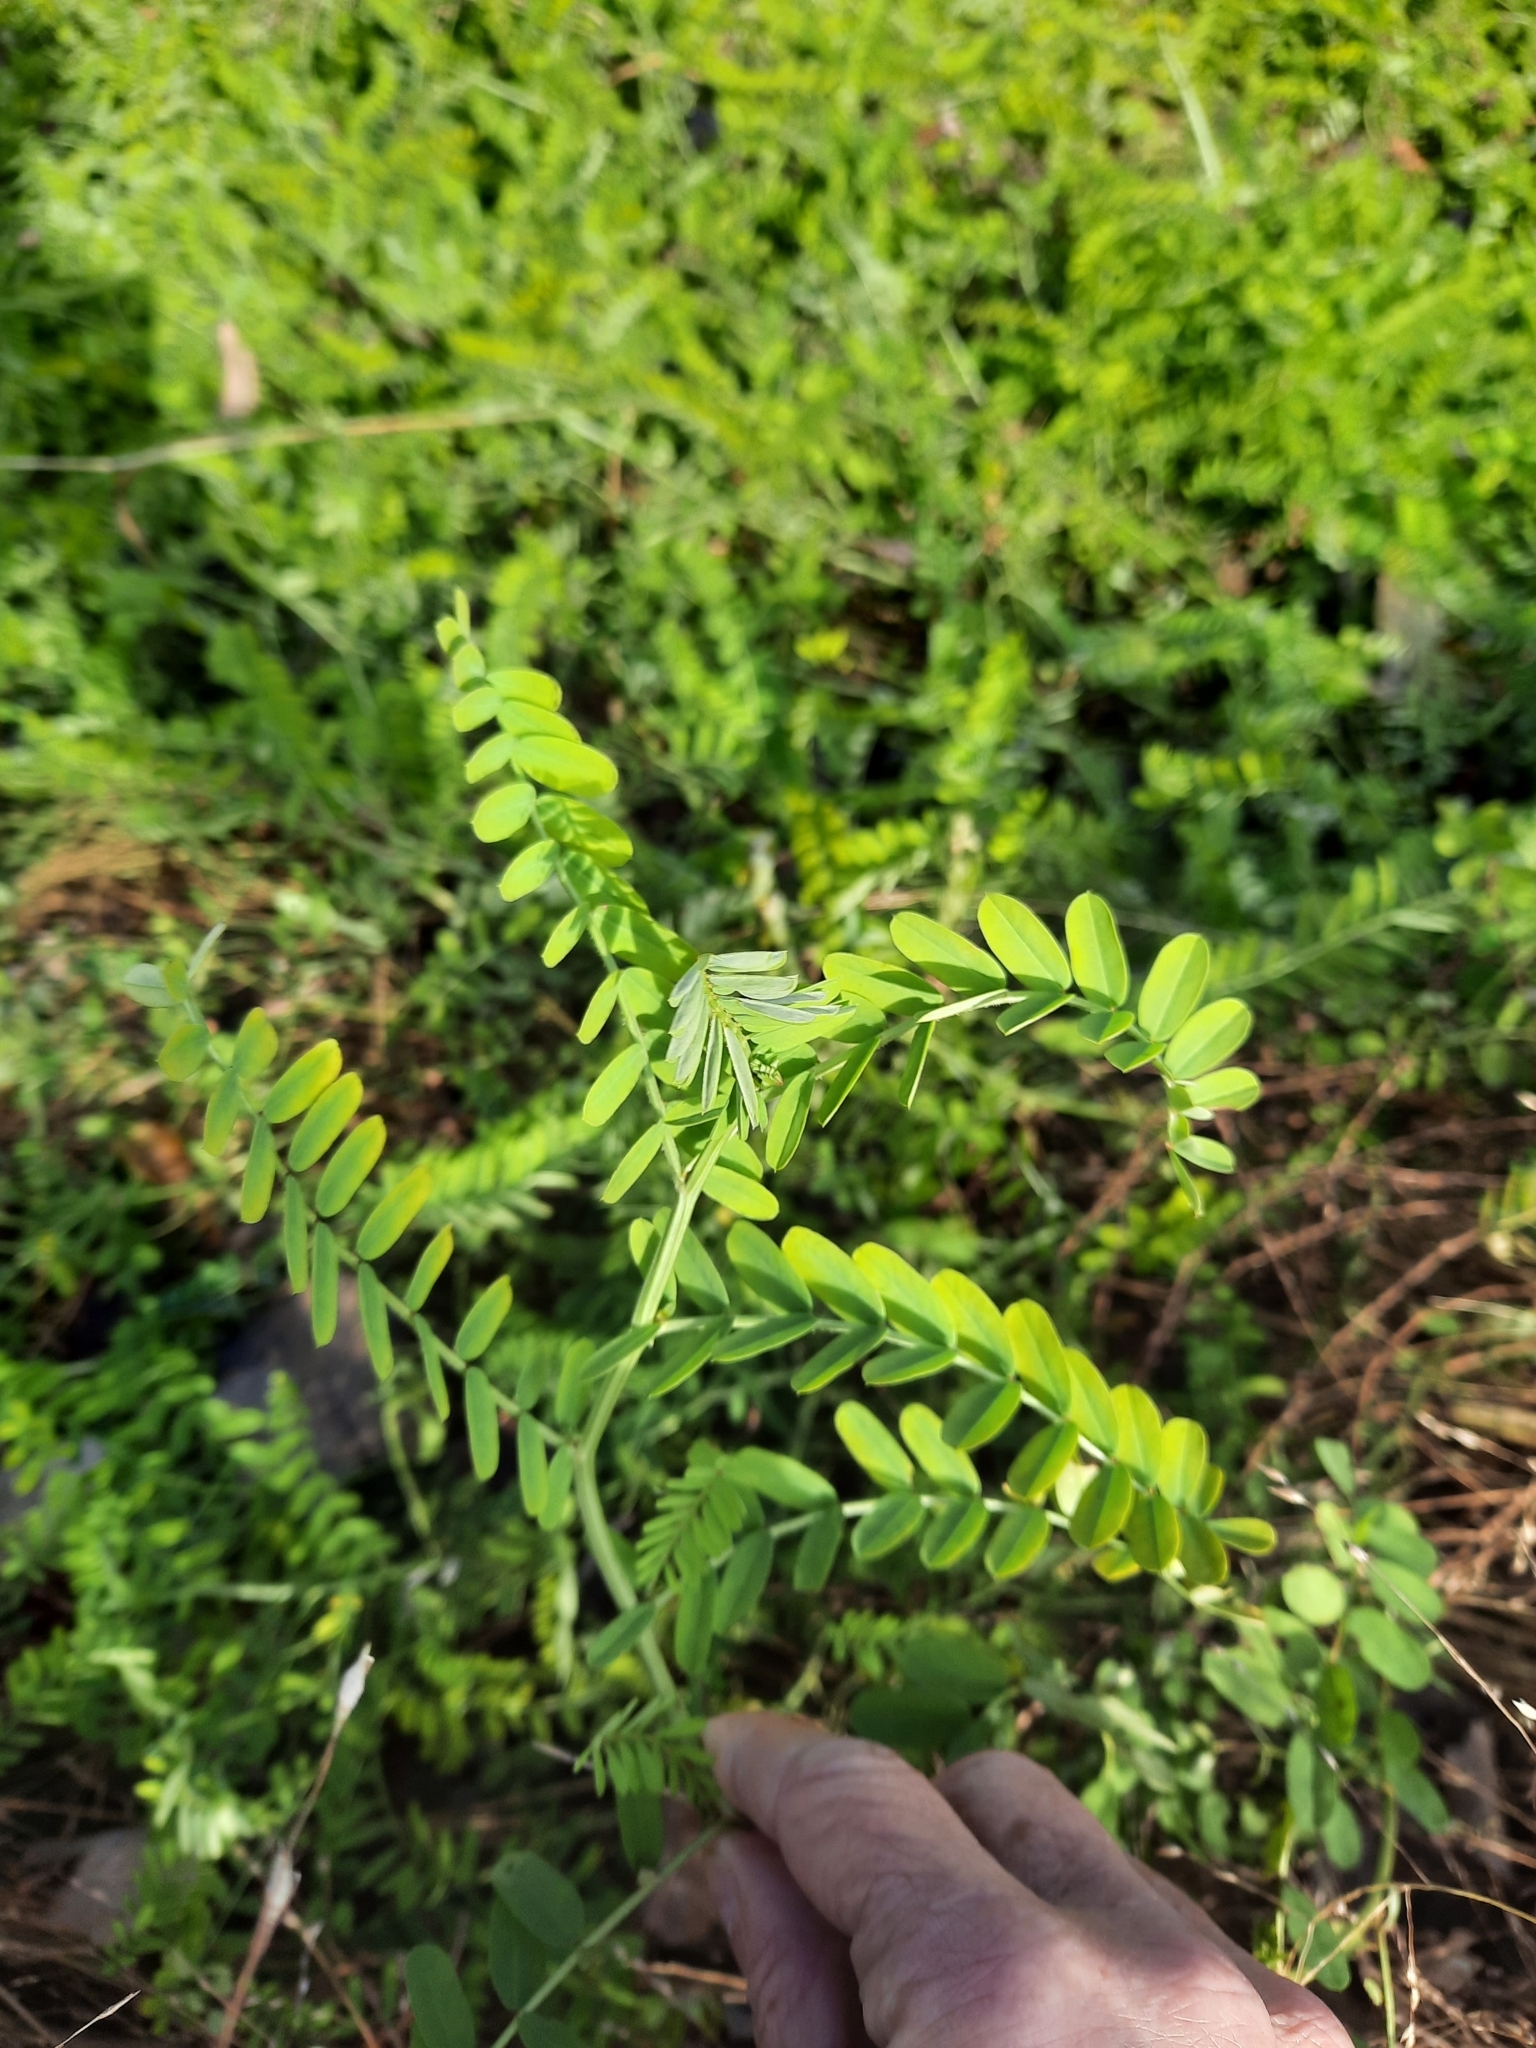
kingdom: Plantae
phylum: Tracheophyta
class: Magnoliopsida
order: Fabales
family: Fabaceae
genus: Coronilla
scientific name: Coronilla varia
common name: Crownvetch
